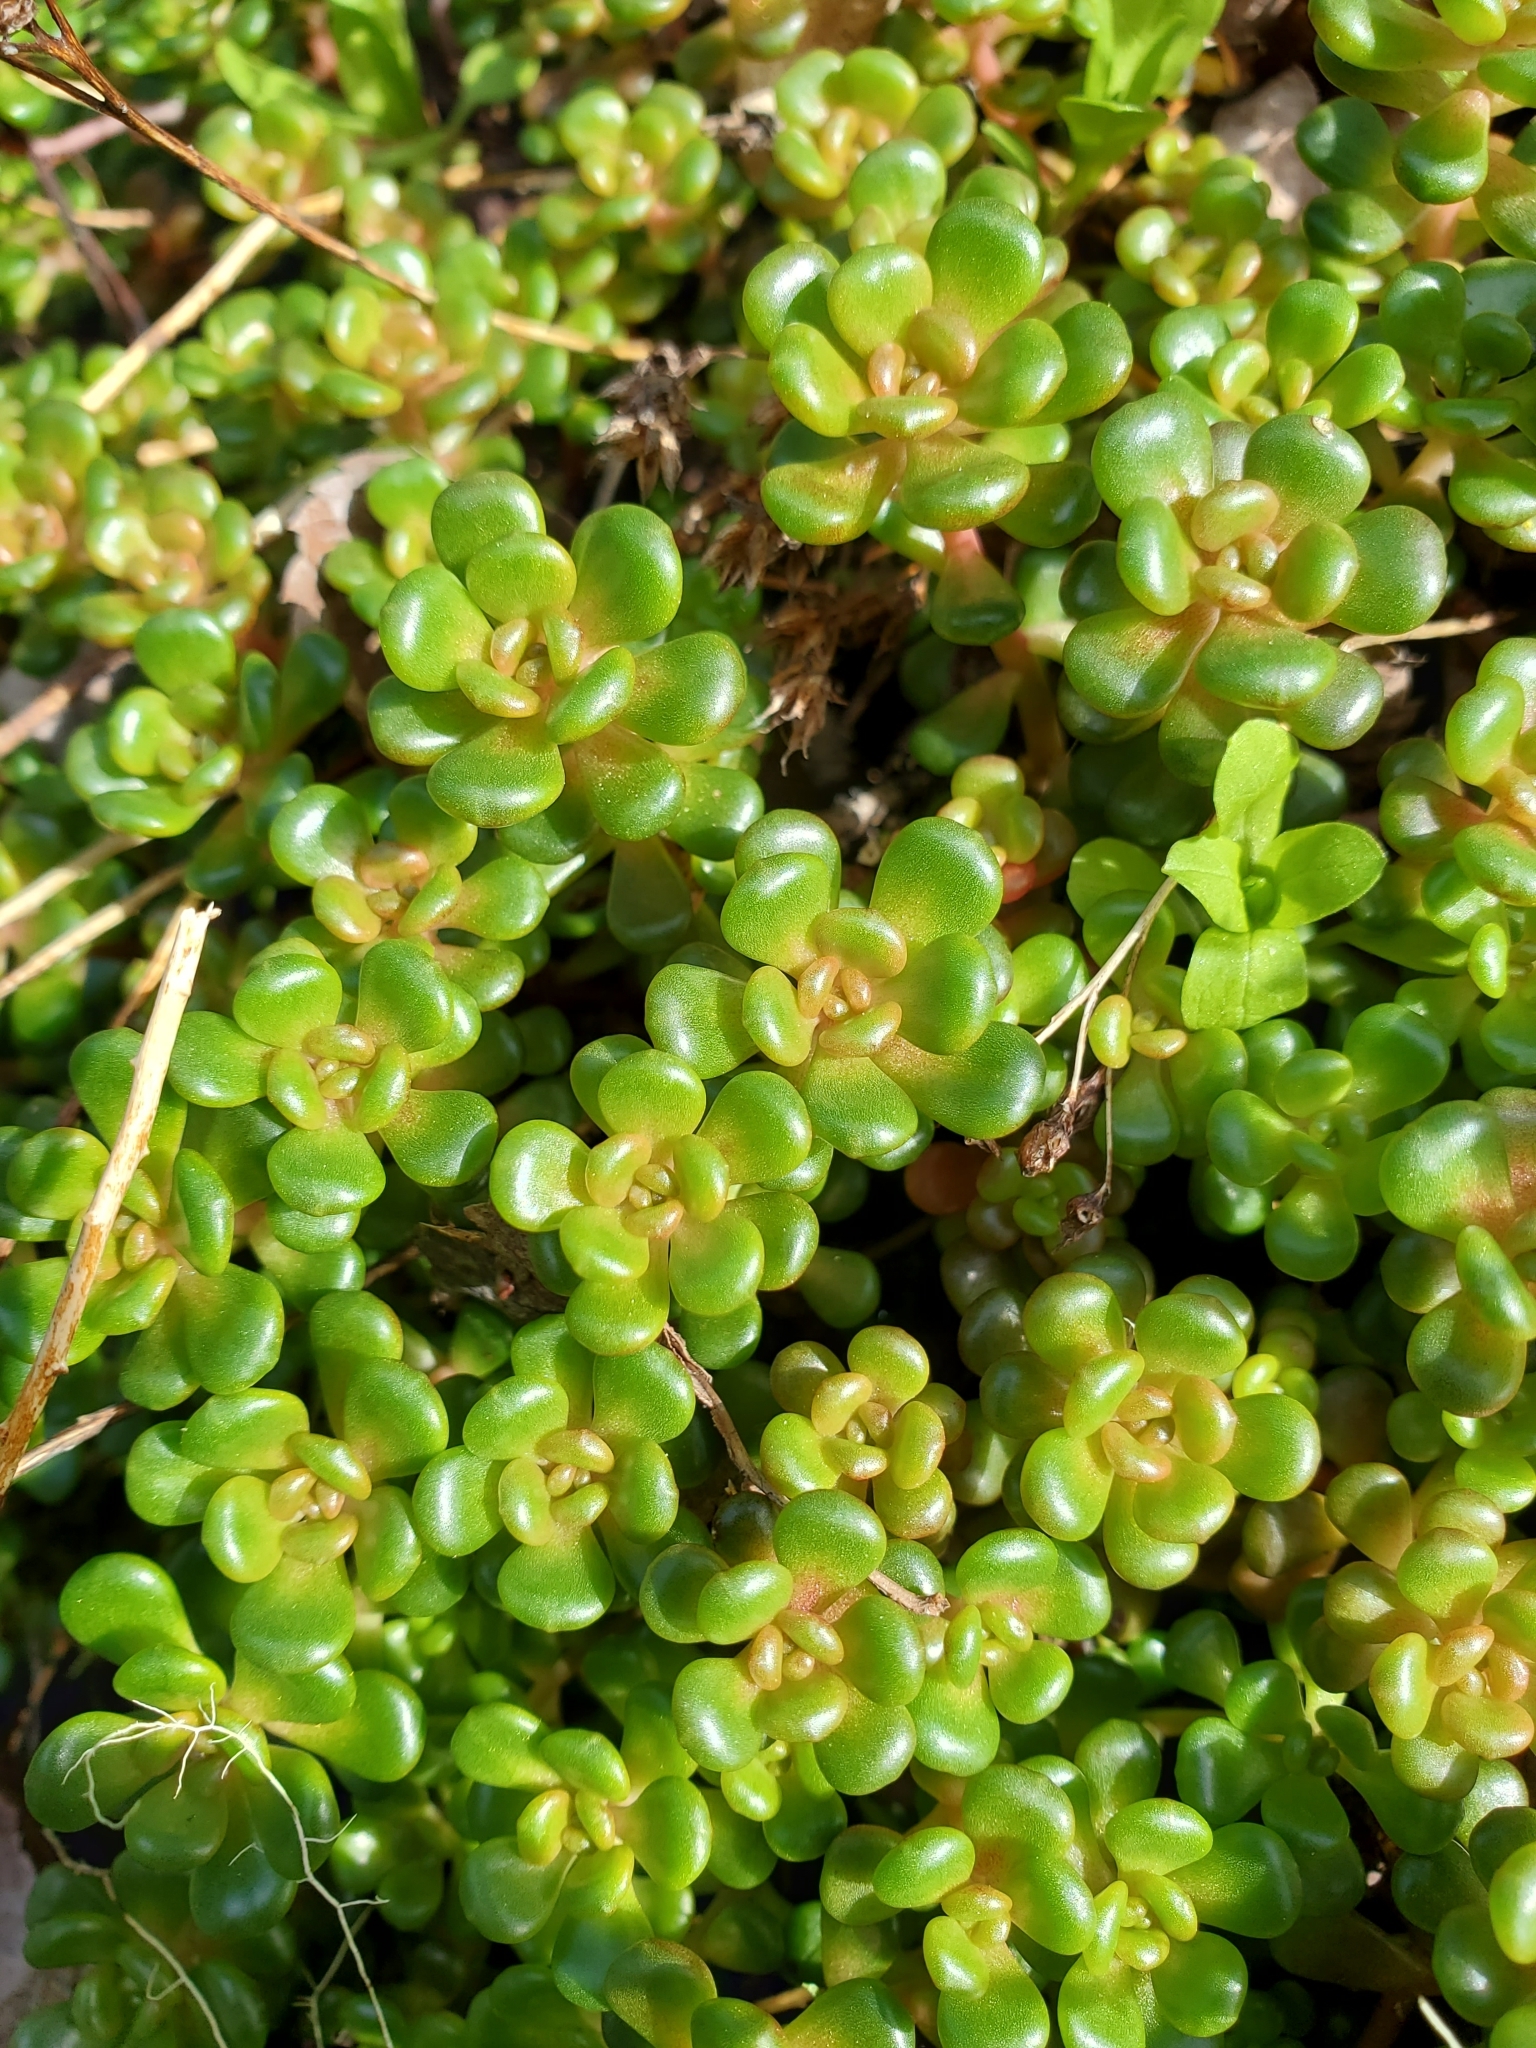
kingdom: Plantae
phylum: Tracheophyta
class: Magnoliopsida
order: Saxifragales
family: Crassulaceae
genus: Sedum
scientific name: Sedum oreganum
